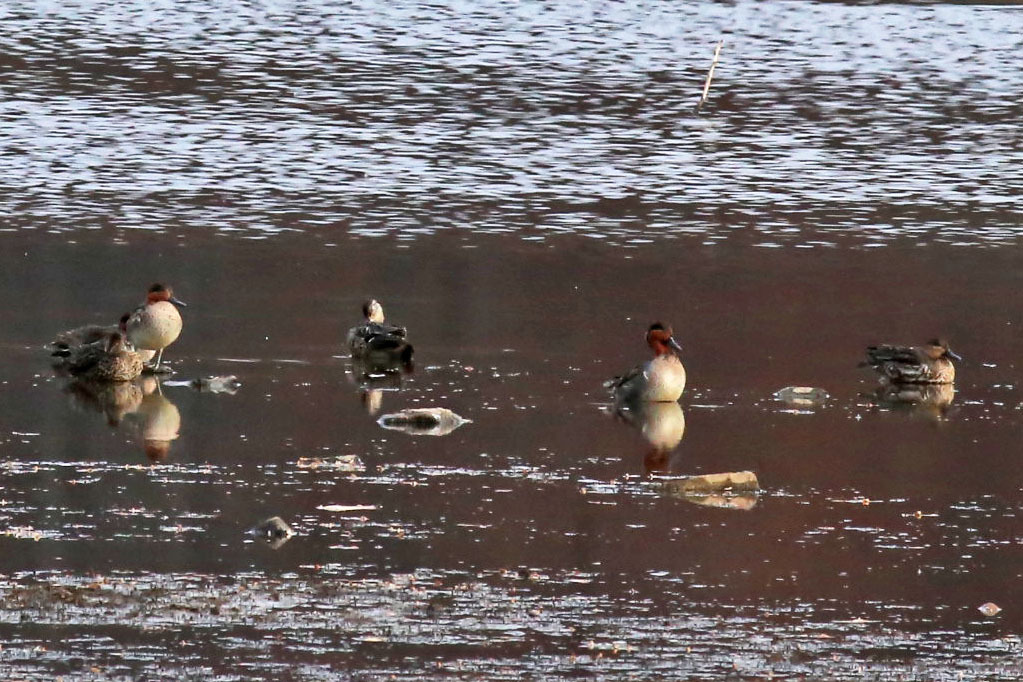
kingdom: Animalia
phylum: Chordata
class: Aves
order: Anseriformes
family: Anatidae
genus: Anas
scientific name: Anas crecca
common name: Eurasian teal
